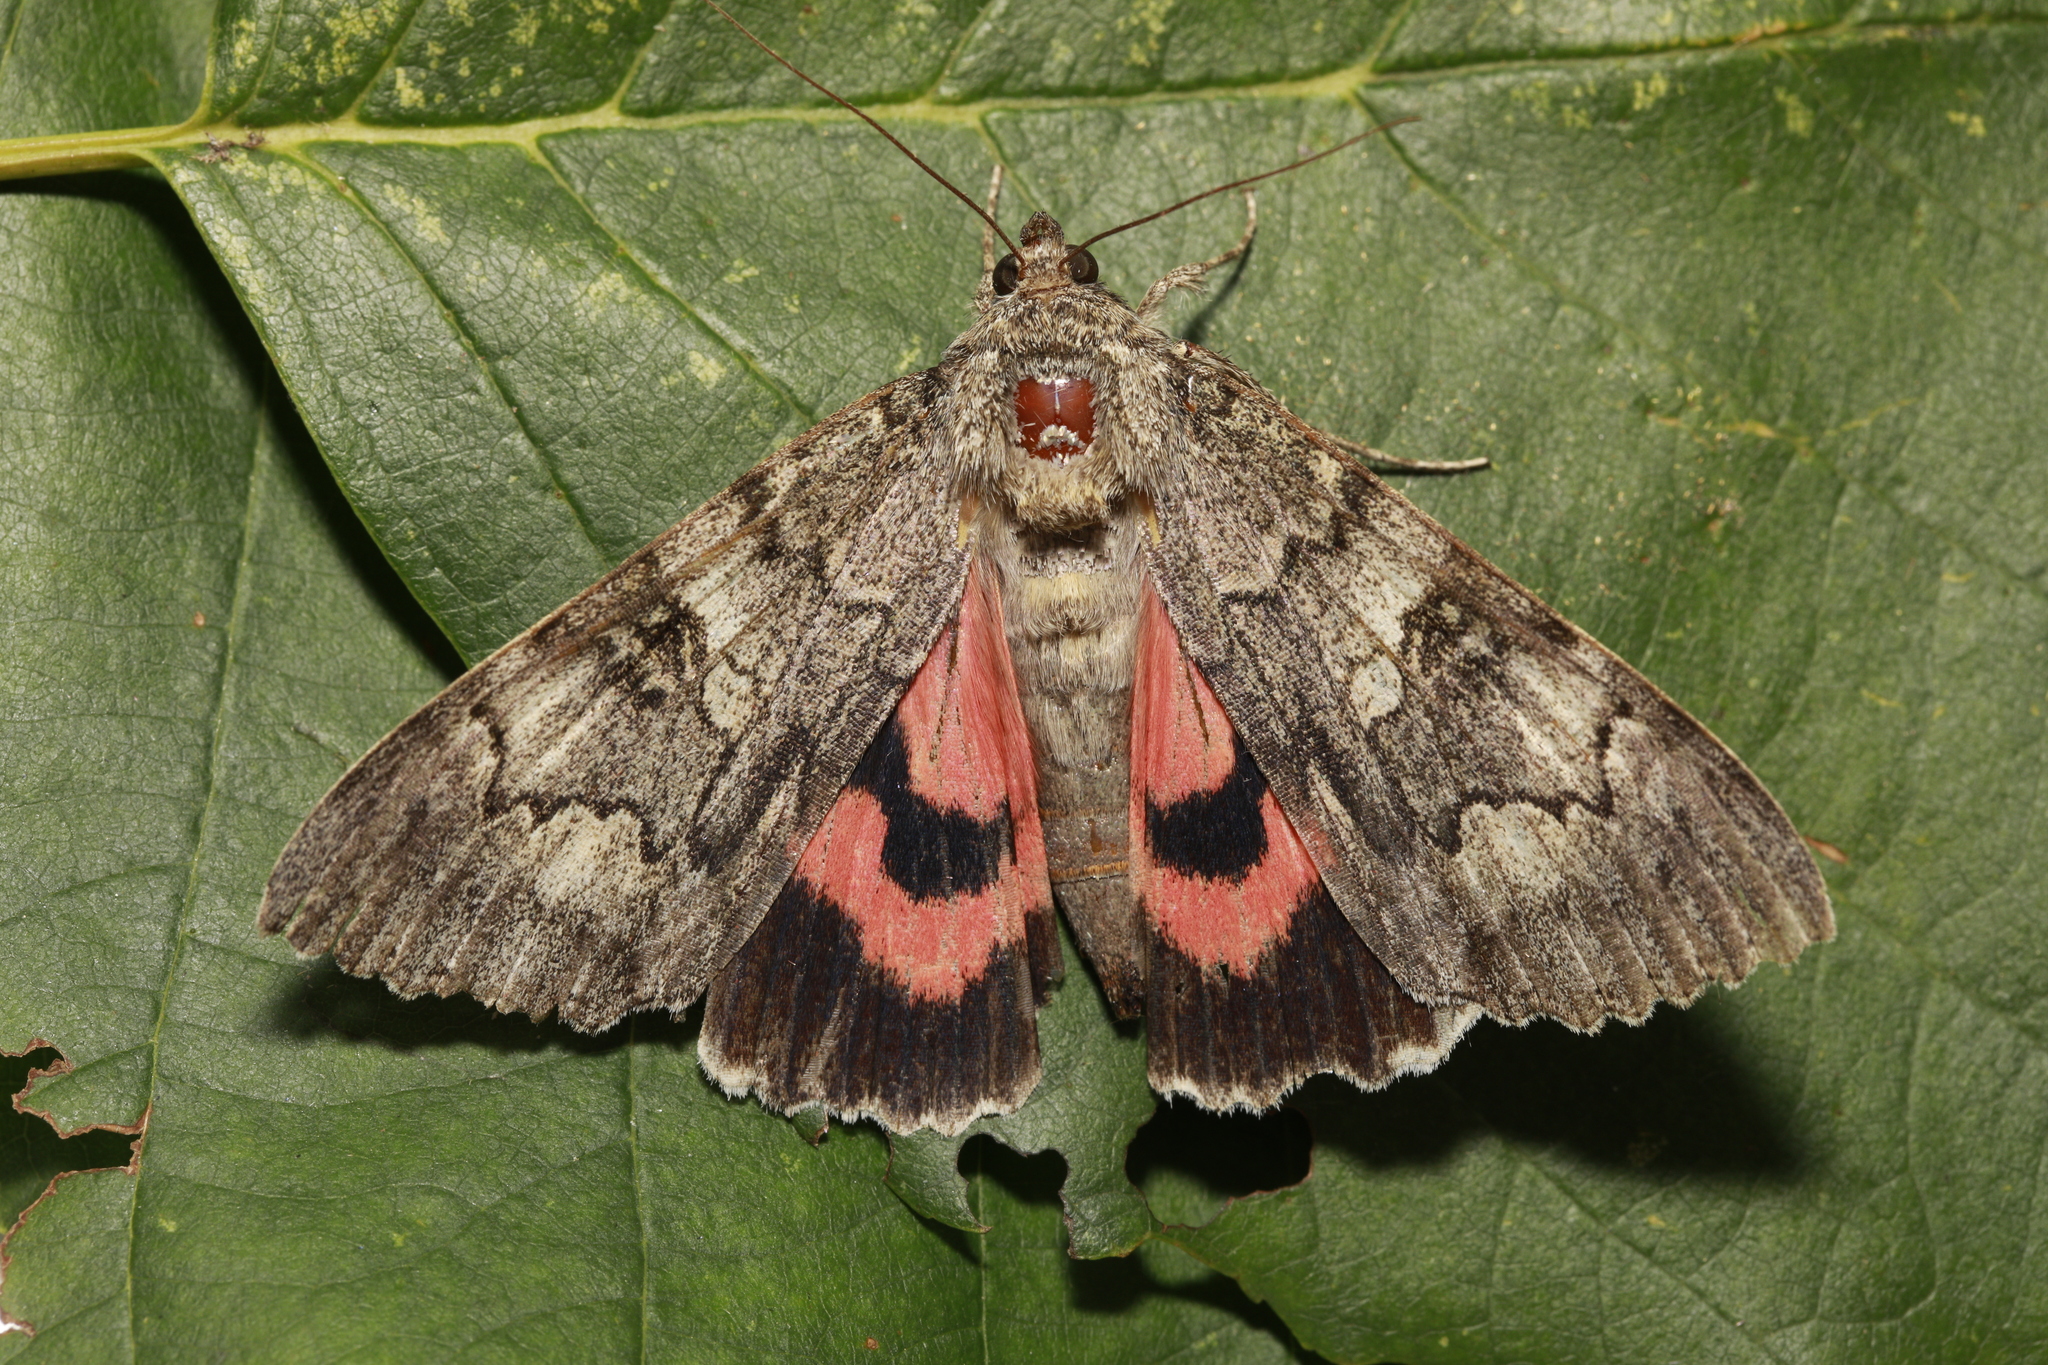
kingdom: Animalia
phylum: Arthropoda
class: Insecta
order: Lepidoptera
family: Erebidae
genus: Catocala
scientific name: Catocala nupta
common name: Red underwing
